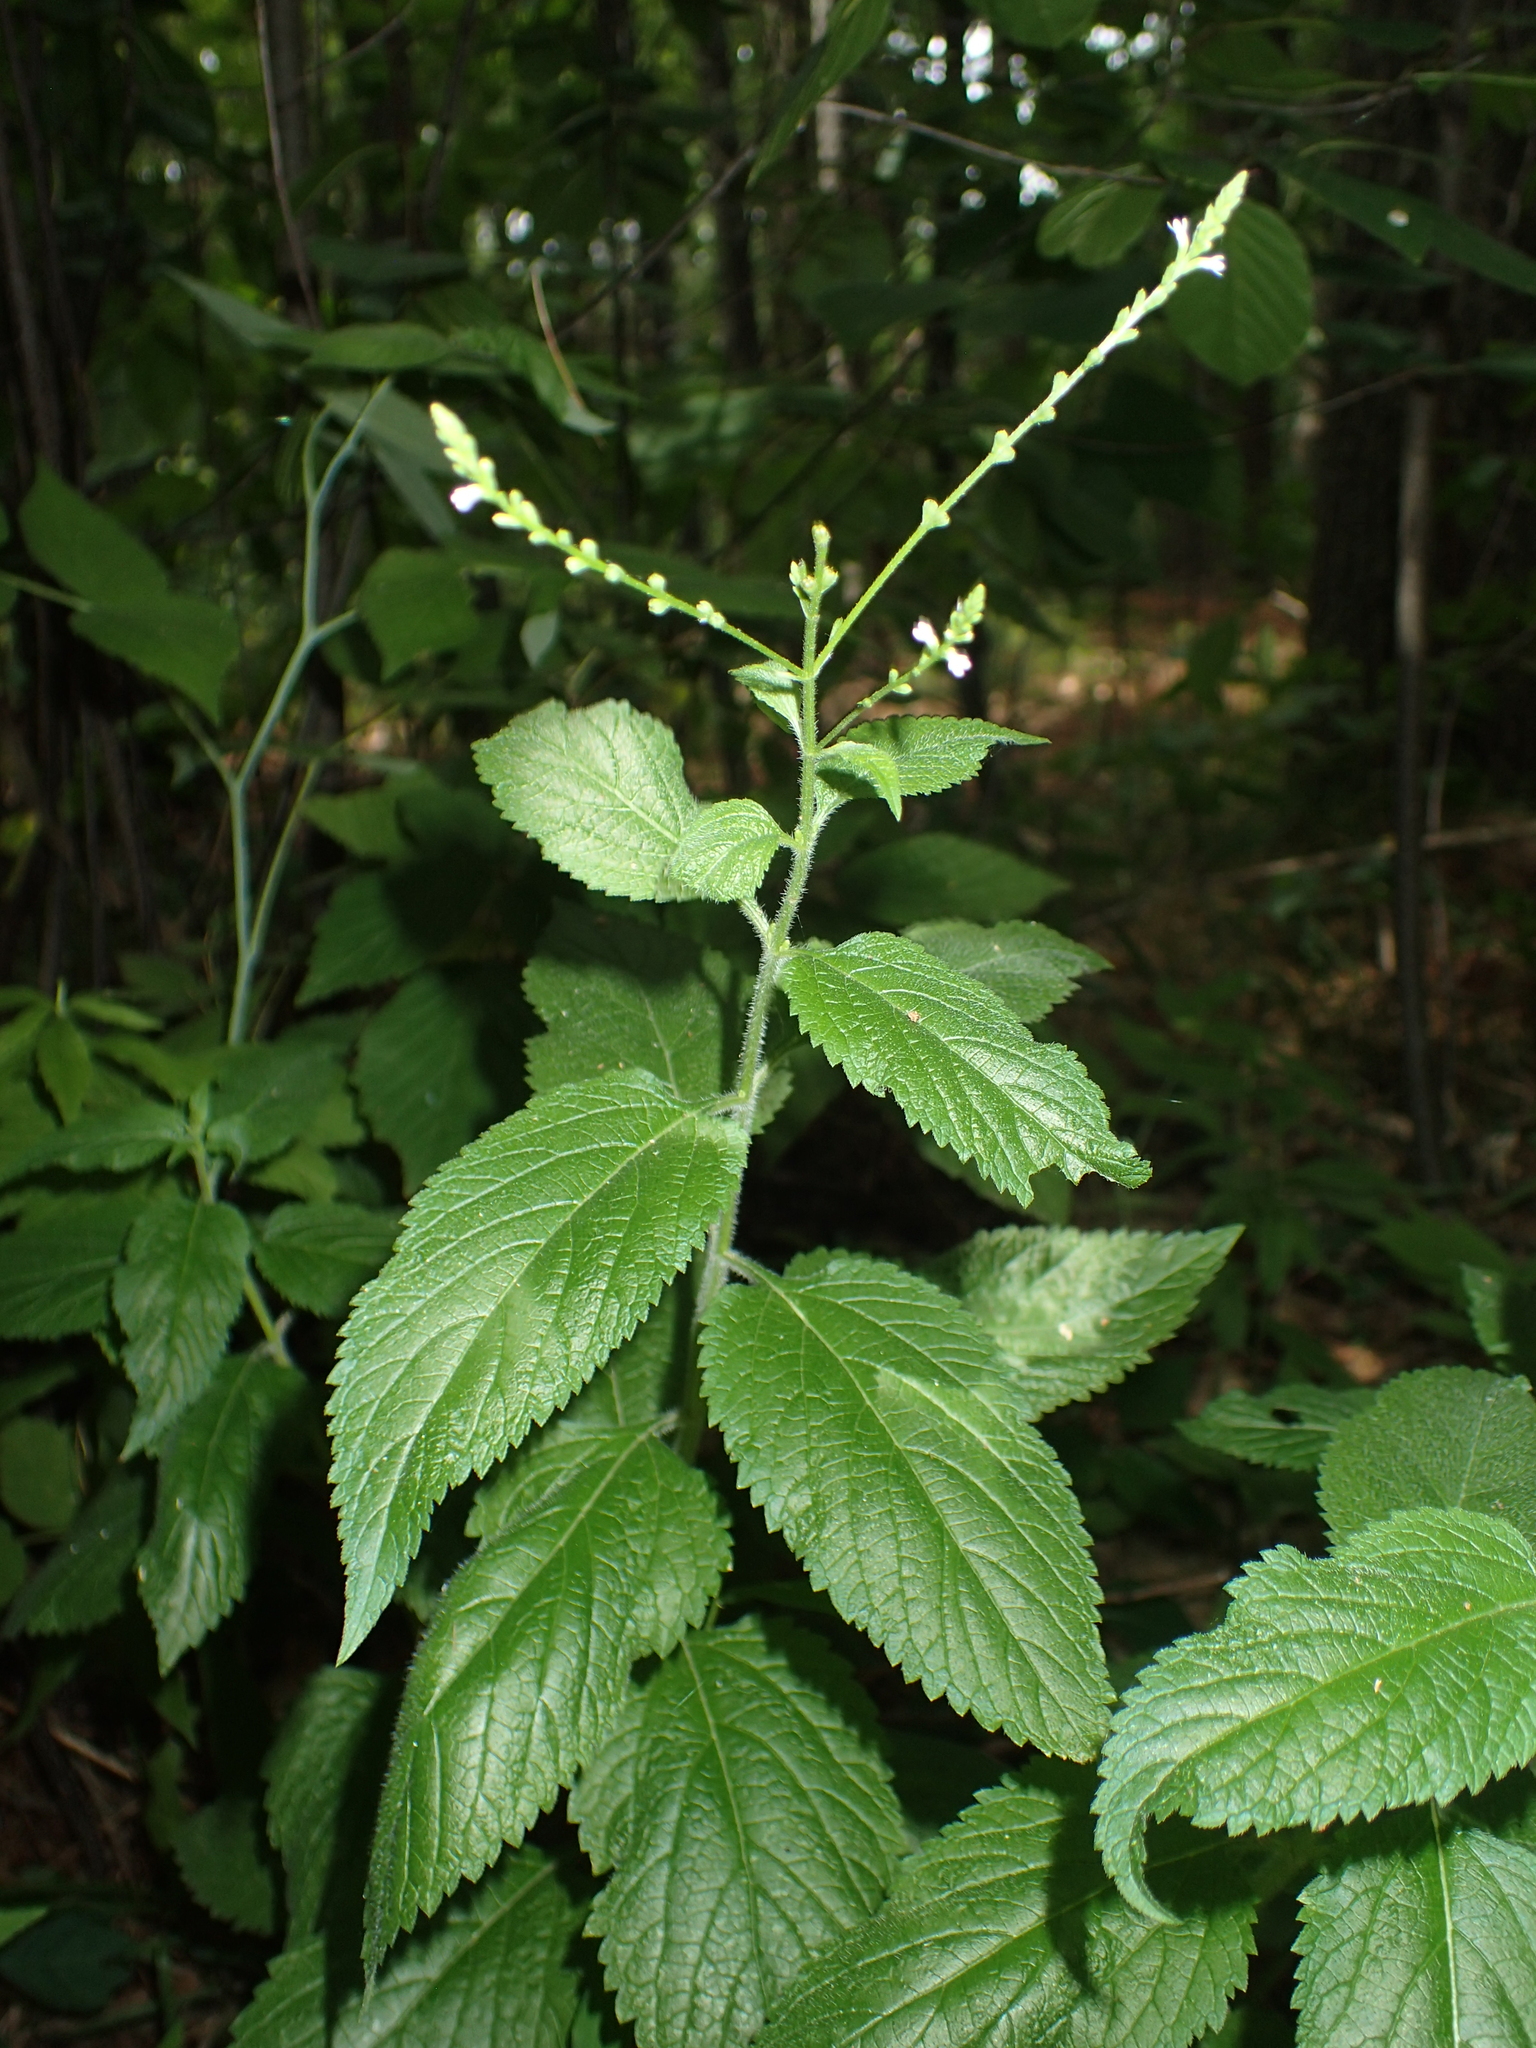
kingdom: Plantae
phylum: Tracheophyta
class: Magnoliopsida
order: Lamiales
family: Verbenaceae
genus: Verbena
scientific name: Verbena urticifolia
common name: Nettle-leaved vervain
